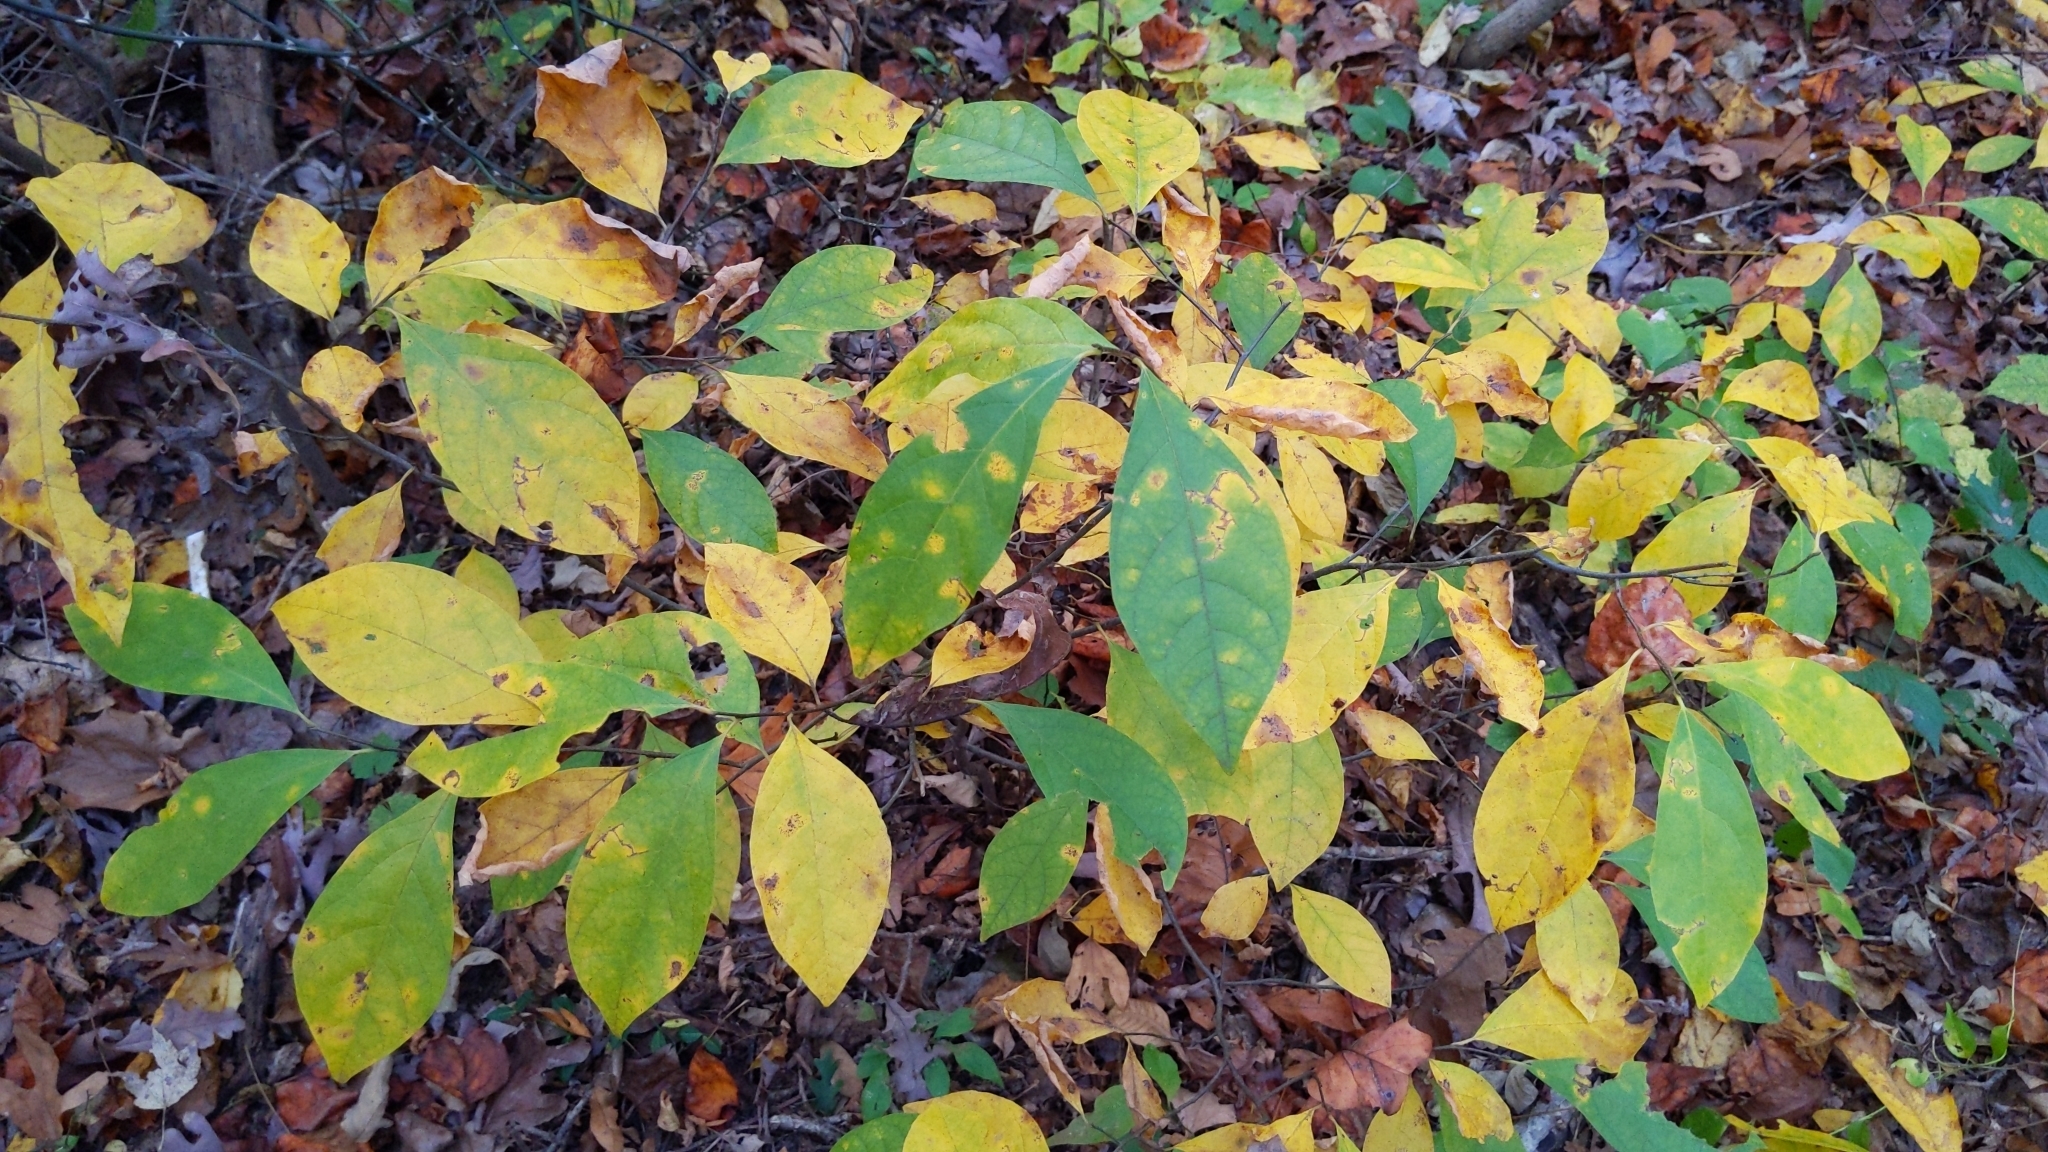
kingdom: Plantae
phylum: Tracheophyta
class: Magnoliopsida
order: Laurales
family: Lauraceae
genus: Lindera
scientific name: Lindera benzoin
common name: Spicebush
